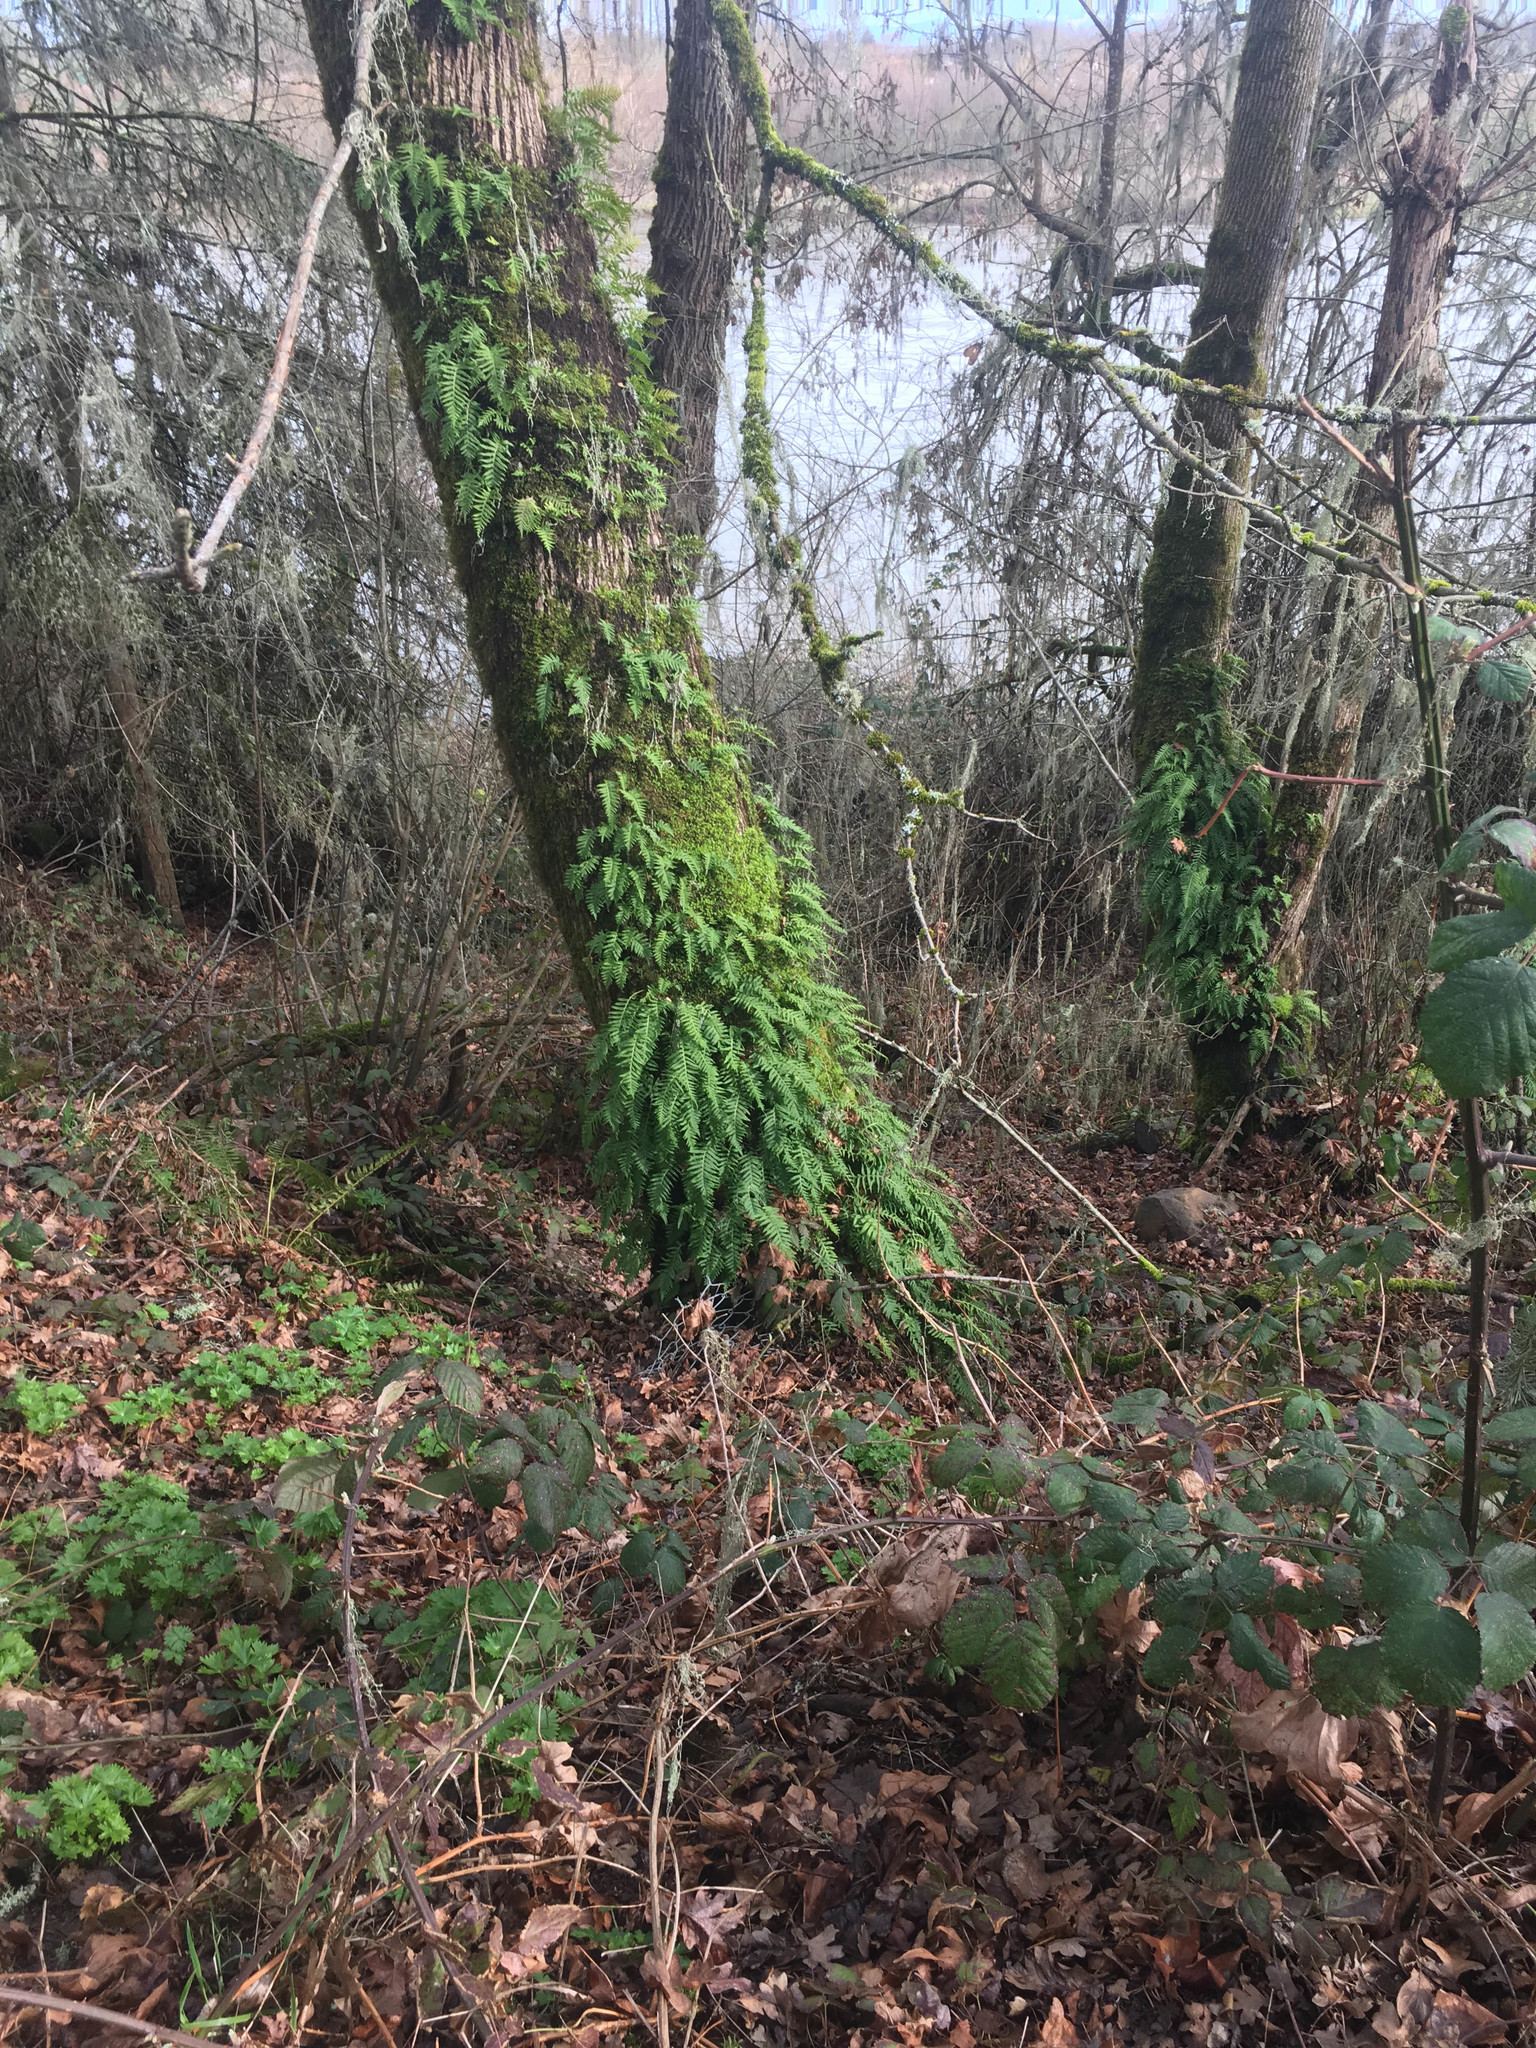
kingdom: Plantae
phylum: Tracheophyta
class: Polypodiopsida
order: Polypodiales
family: Polypodiaceae
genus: Polypodium
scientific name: Polypodium glycyrrhiza
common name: Licorice fern
